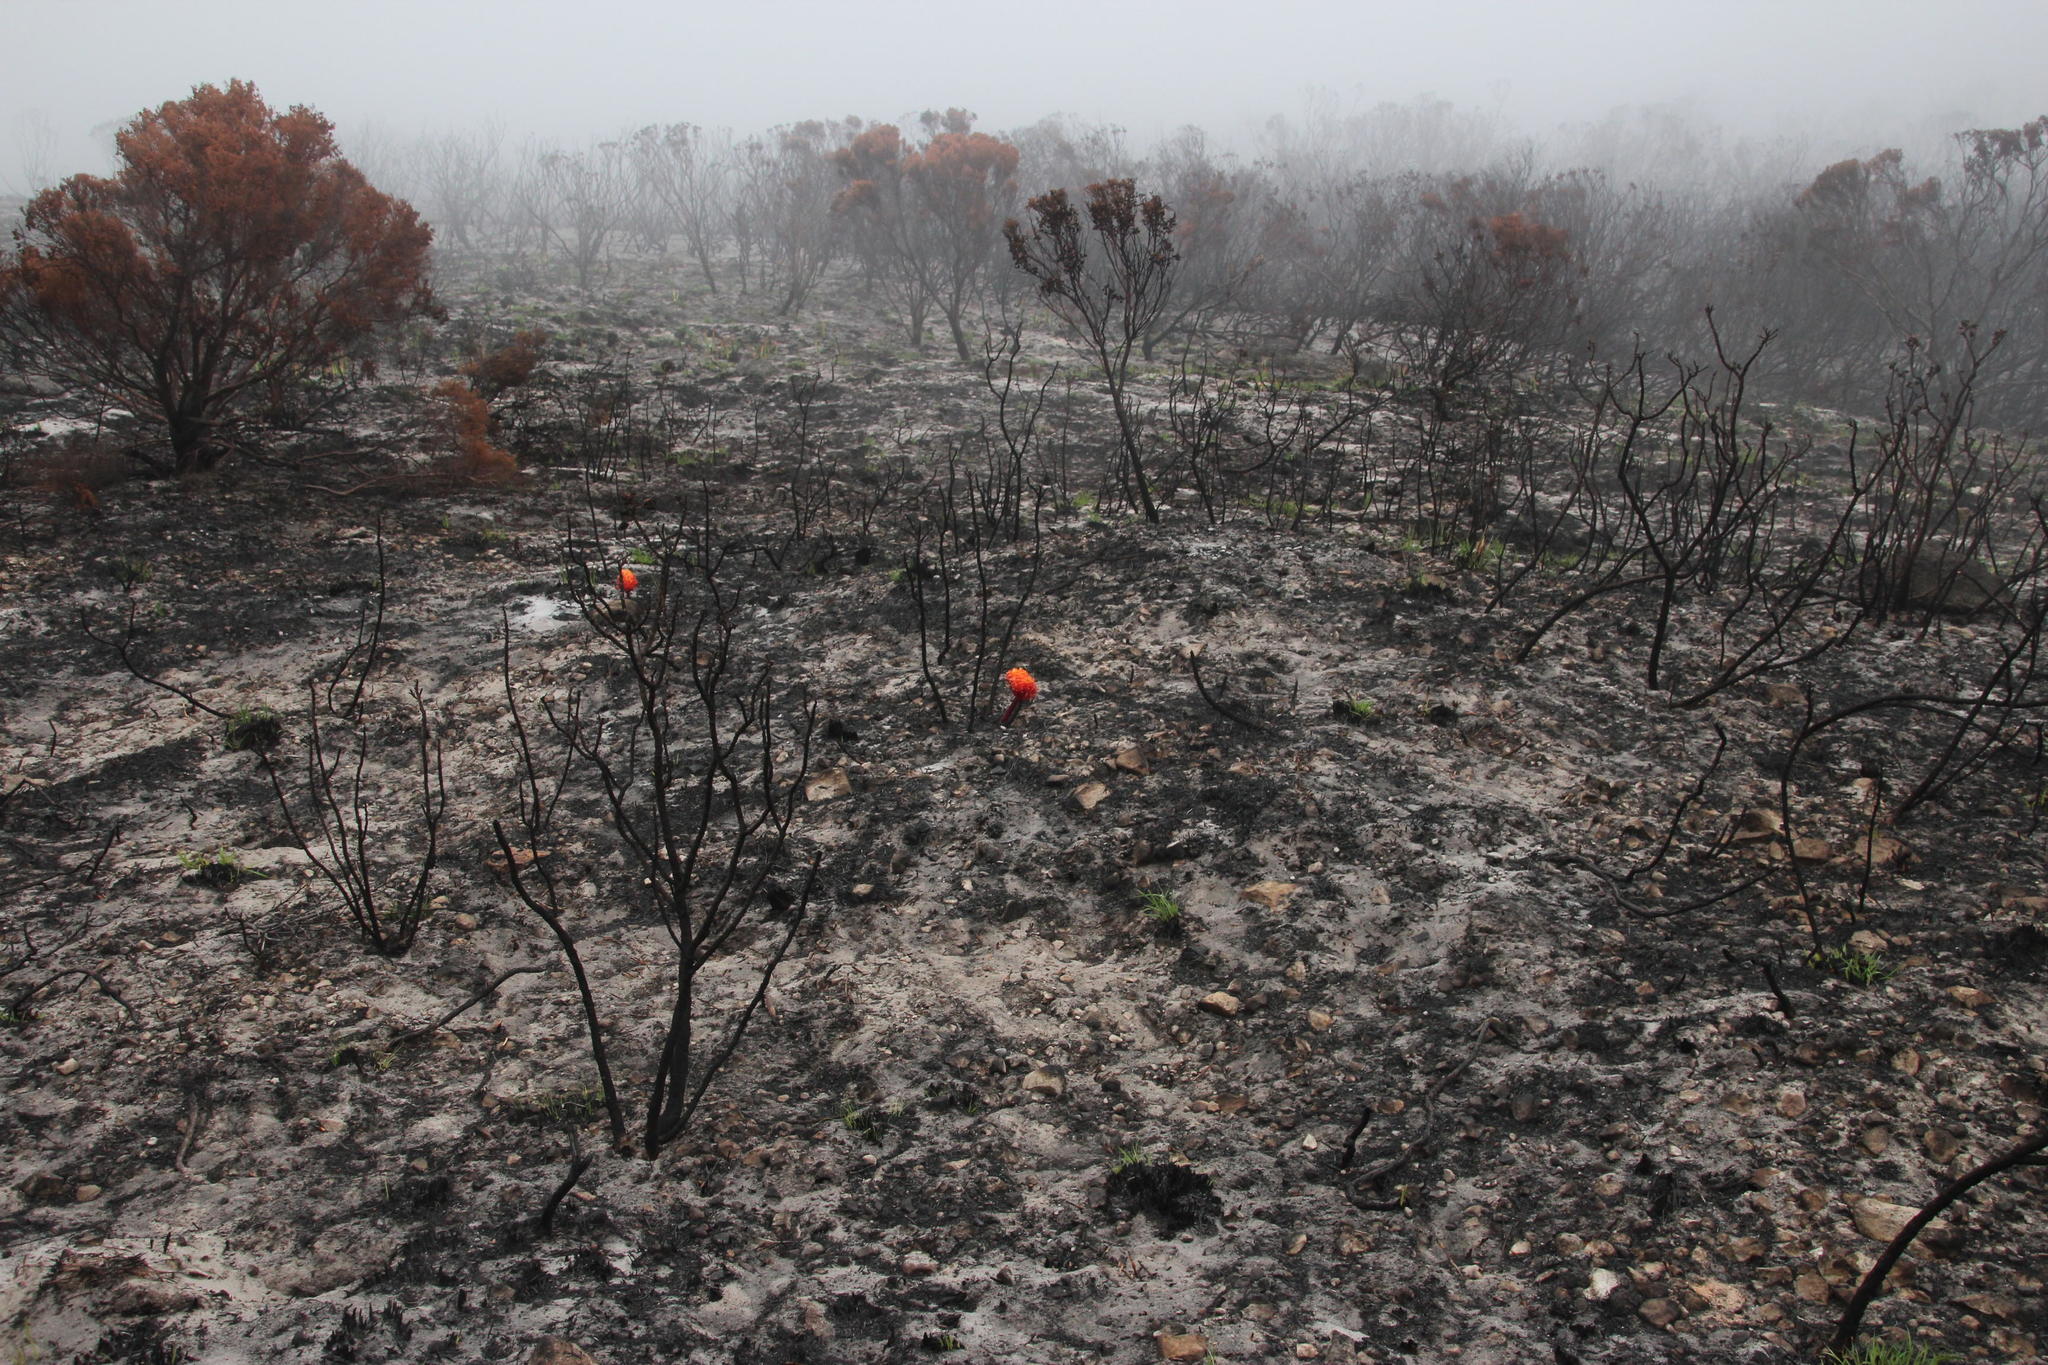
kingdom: Plantae
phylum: Tracheophyta
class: Liliopsida
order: Asparagales
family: Amaryllidaceae
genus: Haemanthus
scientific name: Haemanthus sanguineus
